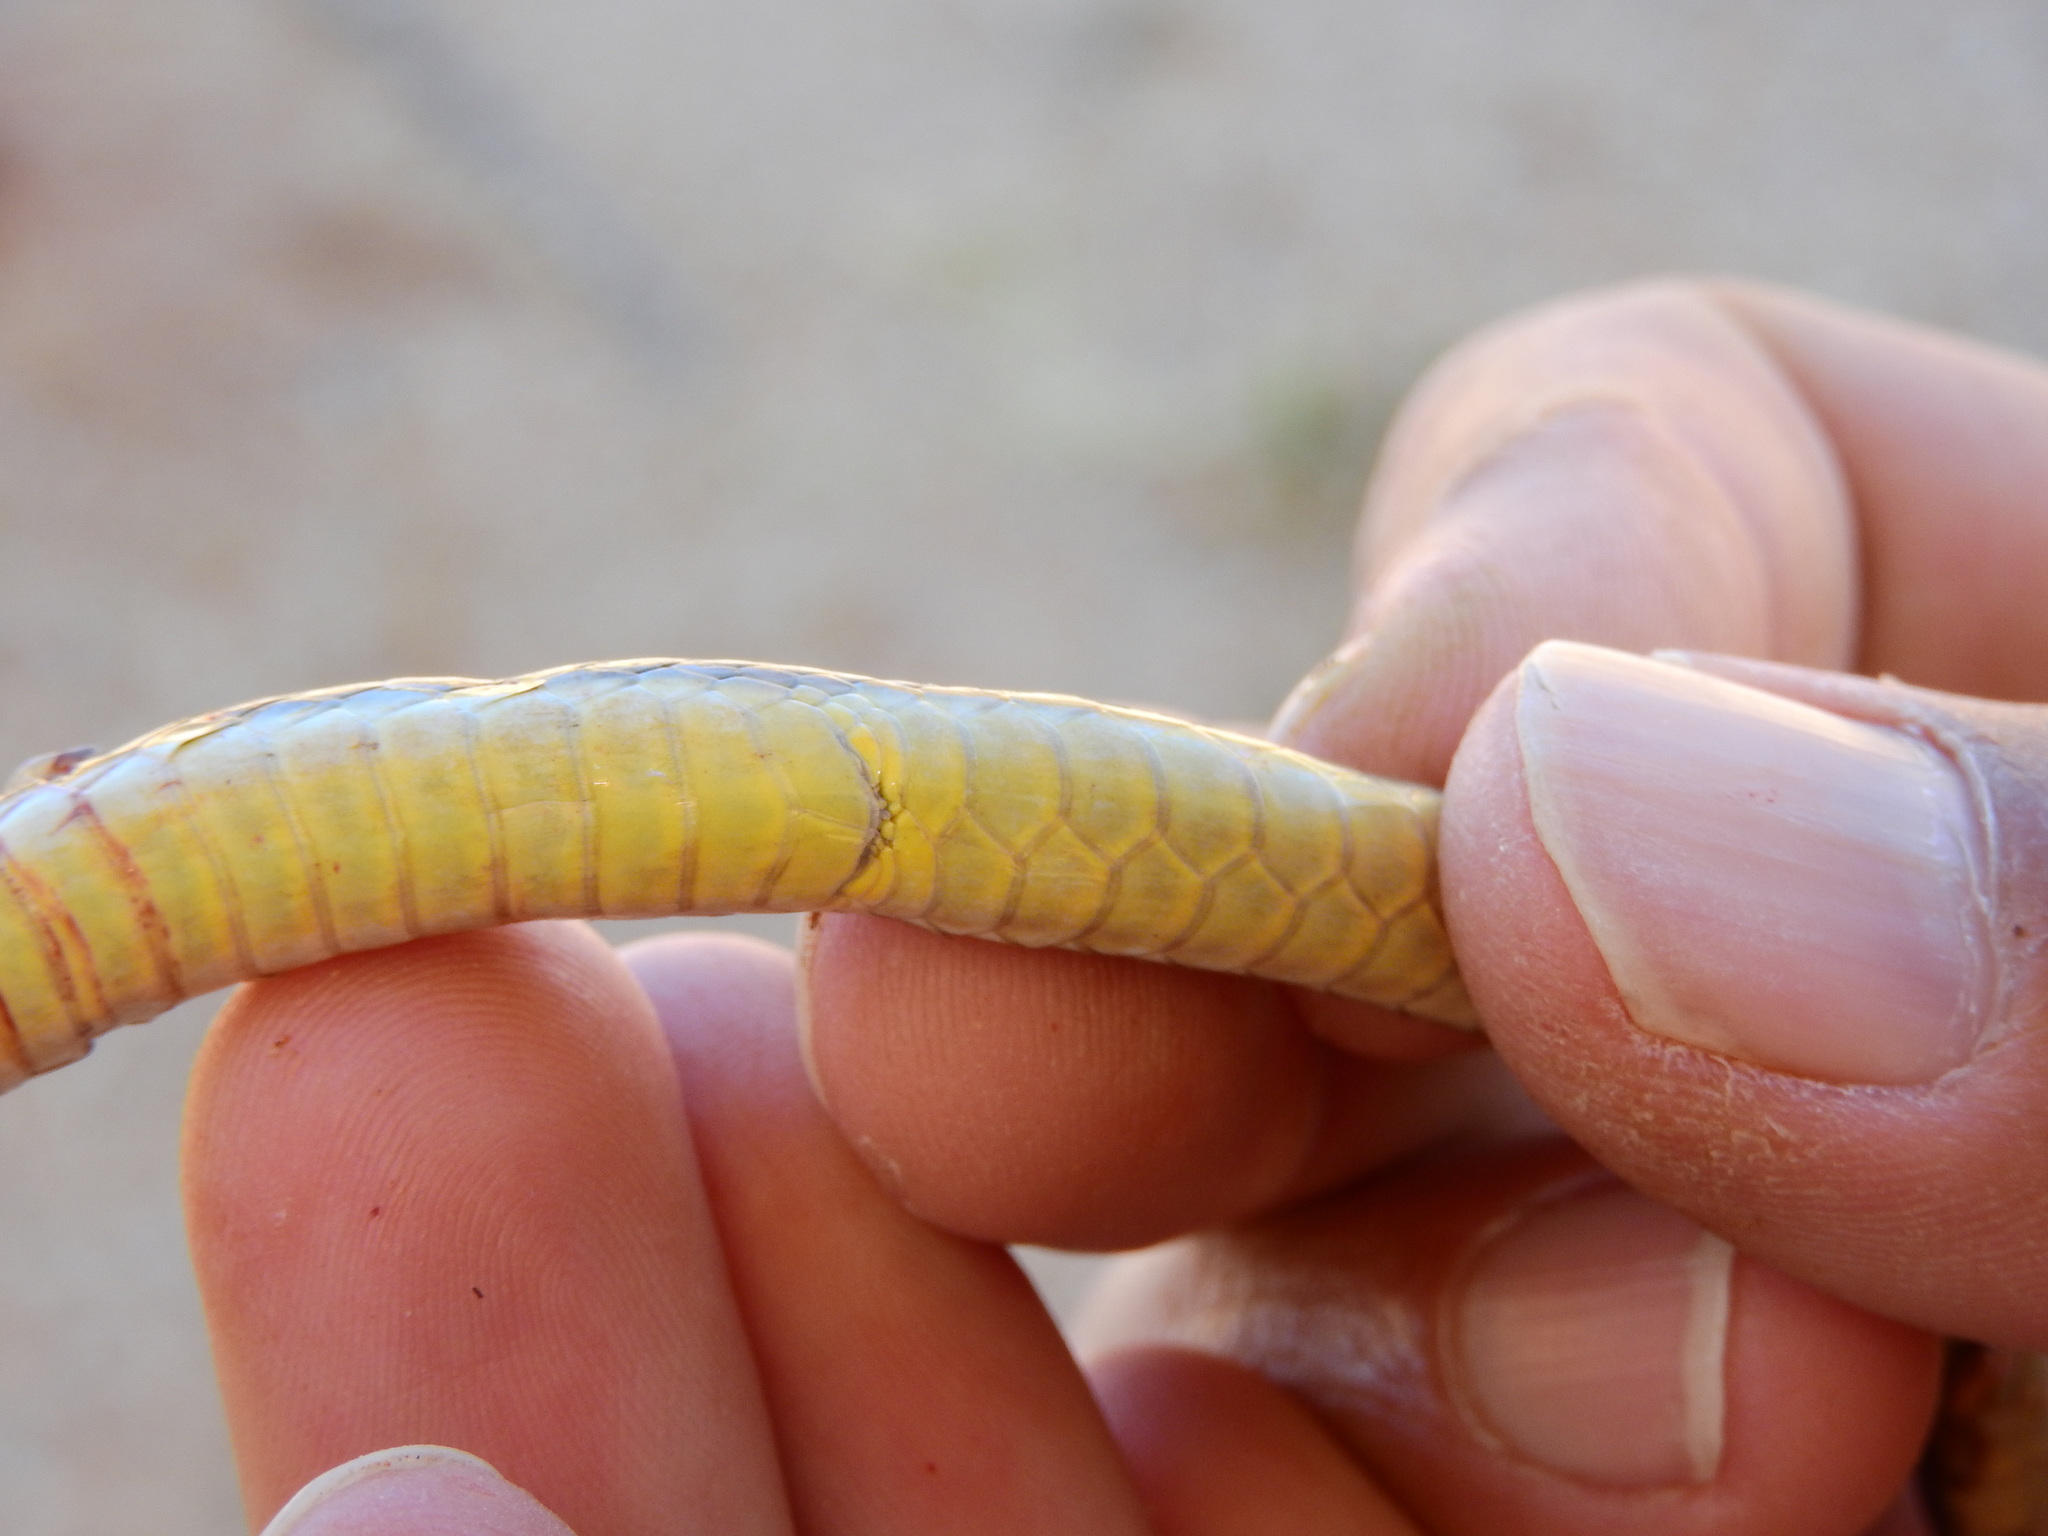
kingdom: Animalia
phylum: Chordata
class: Squamata
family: Psammophiidae
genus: Psammophis
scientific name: Psammophis trigrammus
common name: Western sand snake
